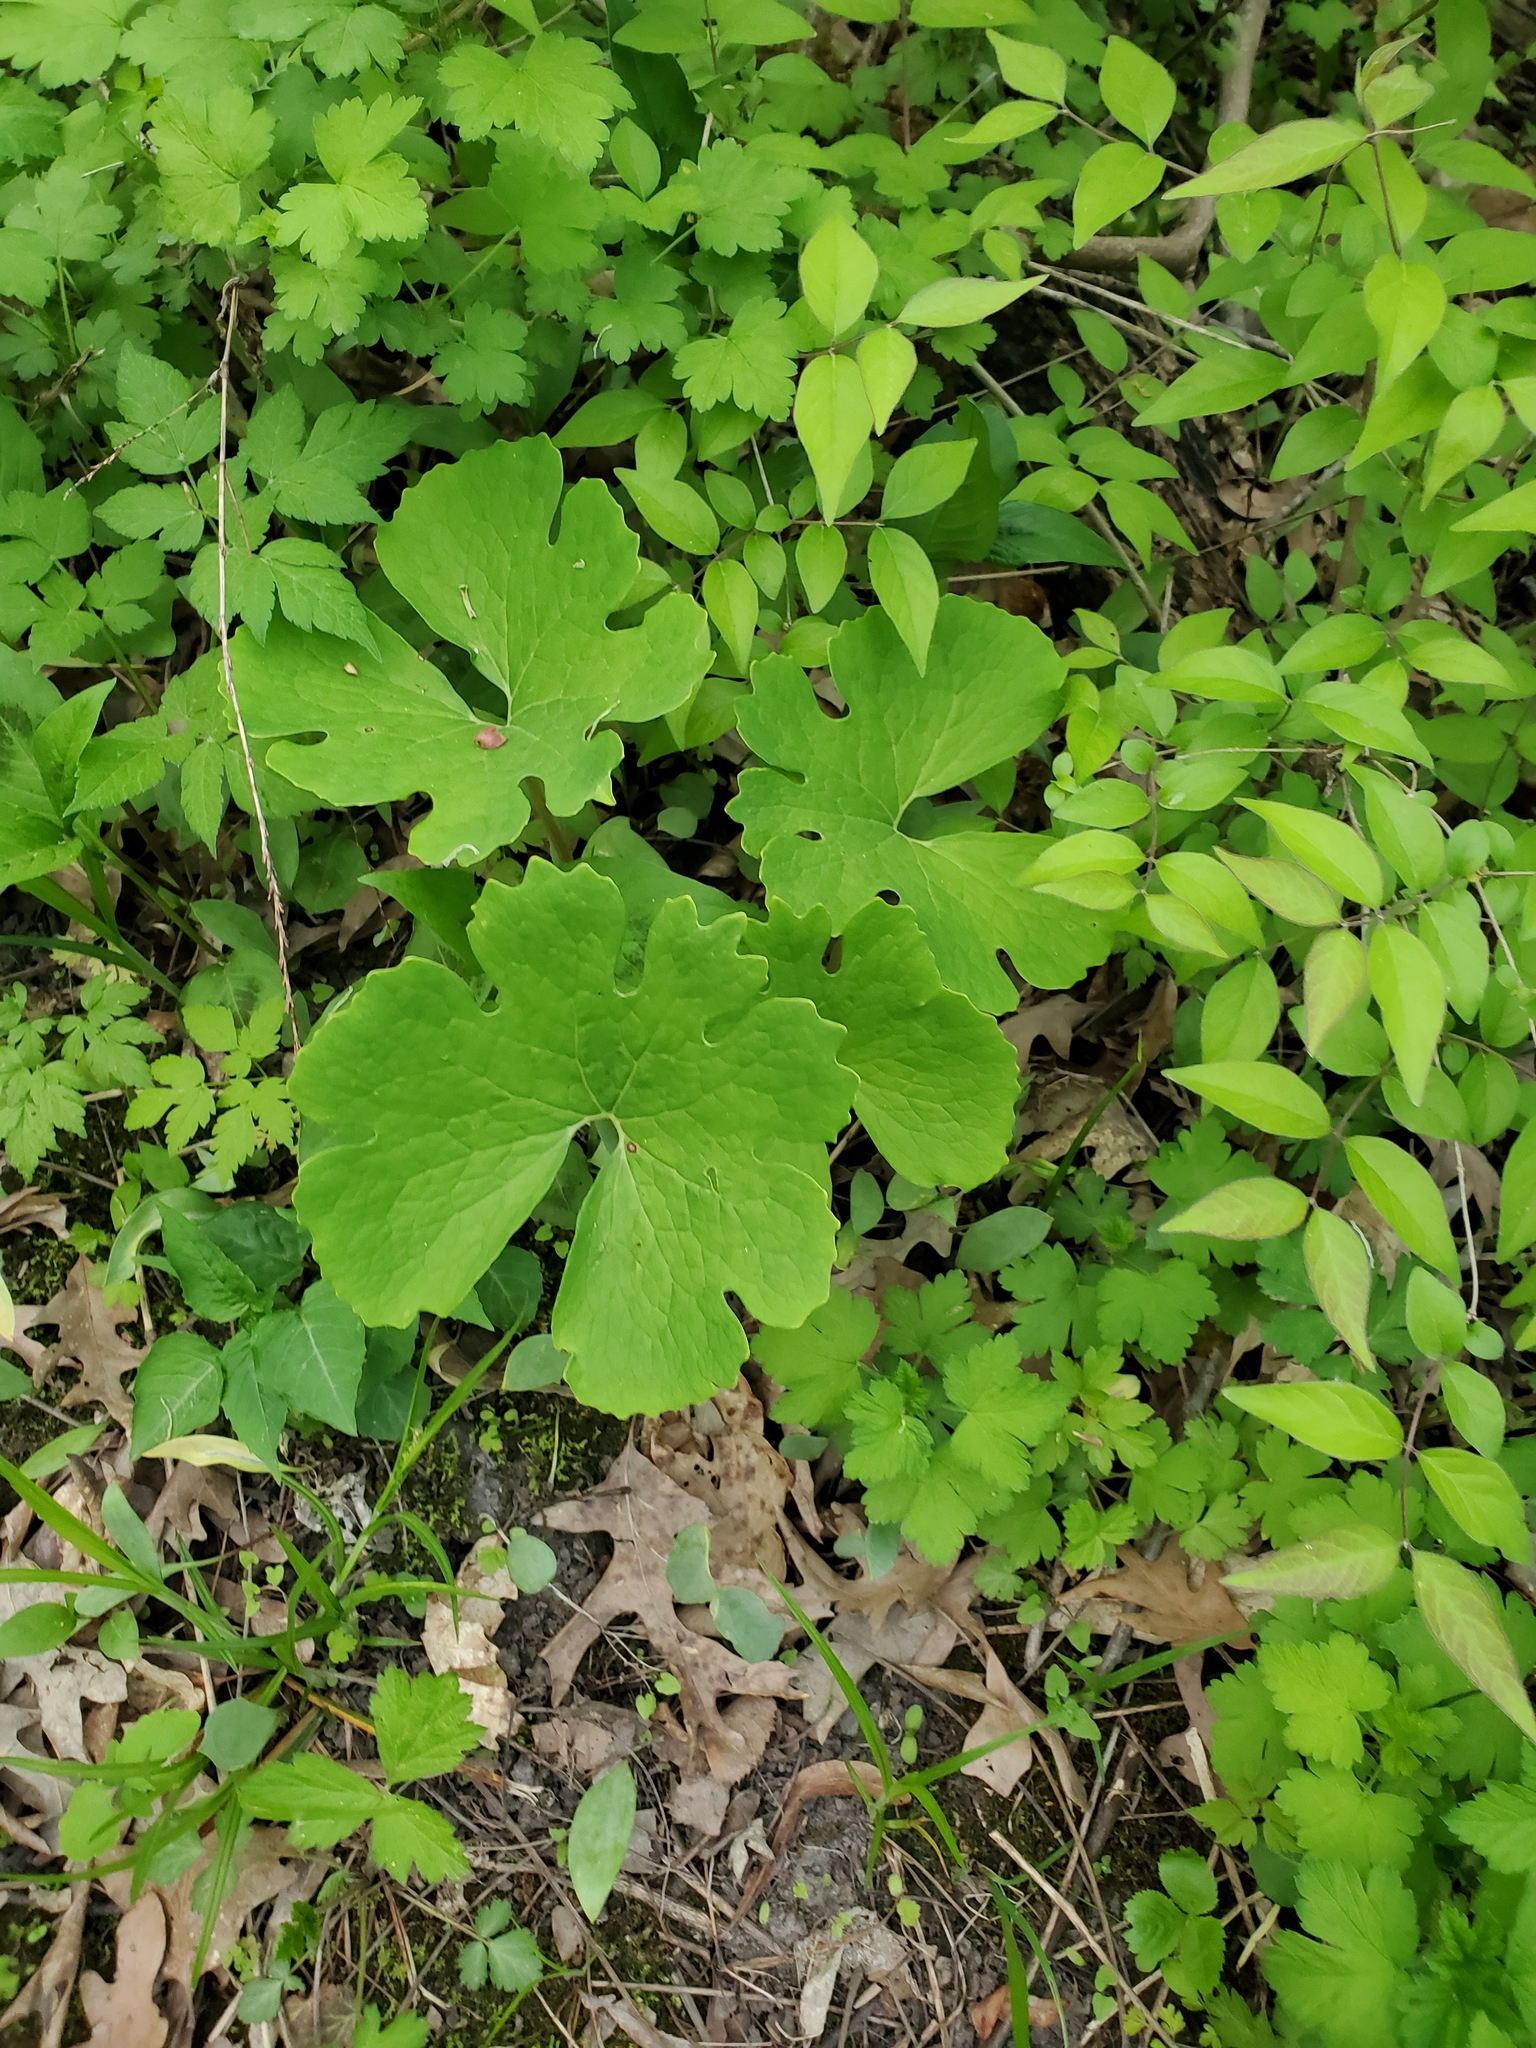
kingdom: Plantae
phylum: Tracheophyta
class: Magnoliopsida
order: Ranunculales
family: Papaveraceae
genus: Sanguinaria
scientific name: Sanguinaria canadensis
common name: Bloodroot
